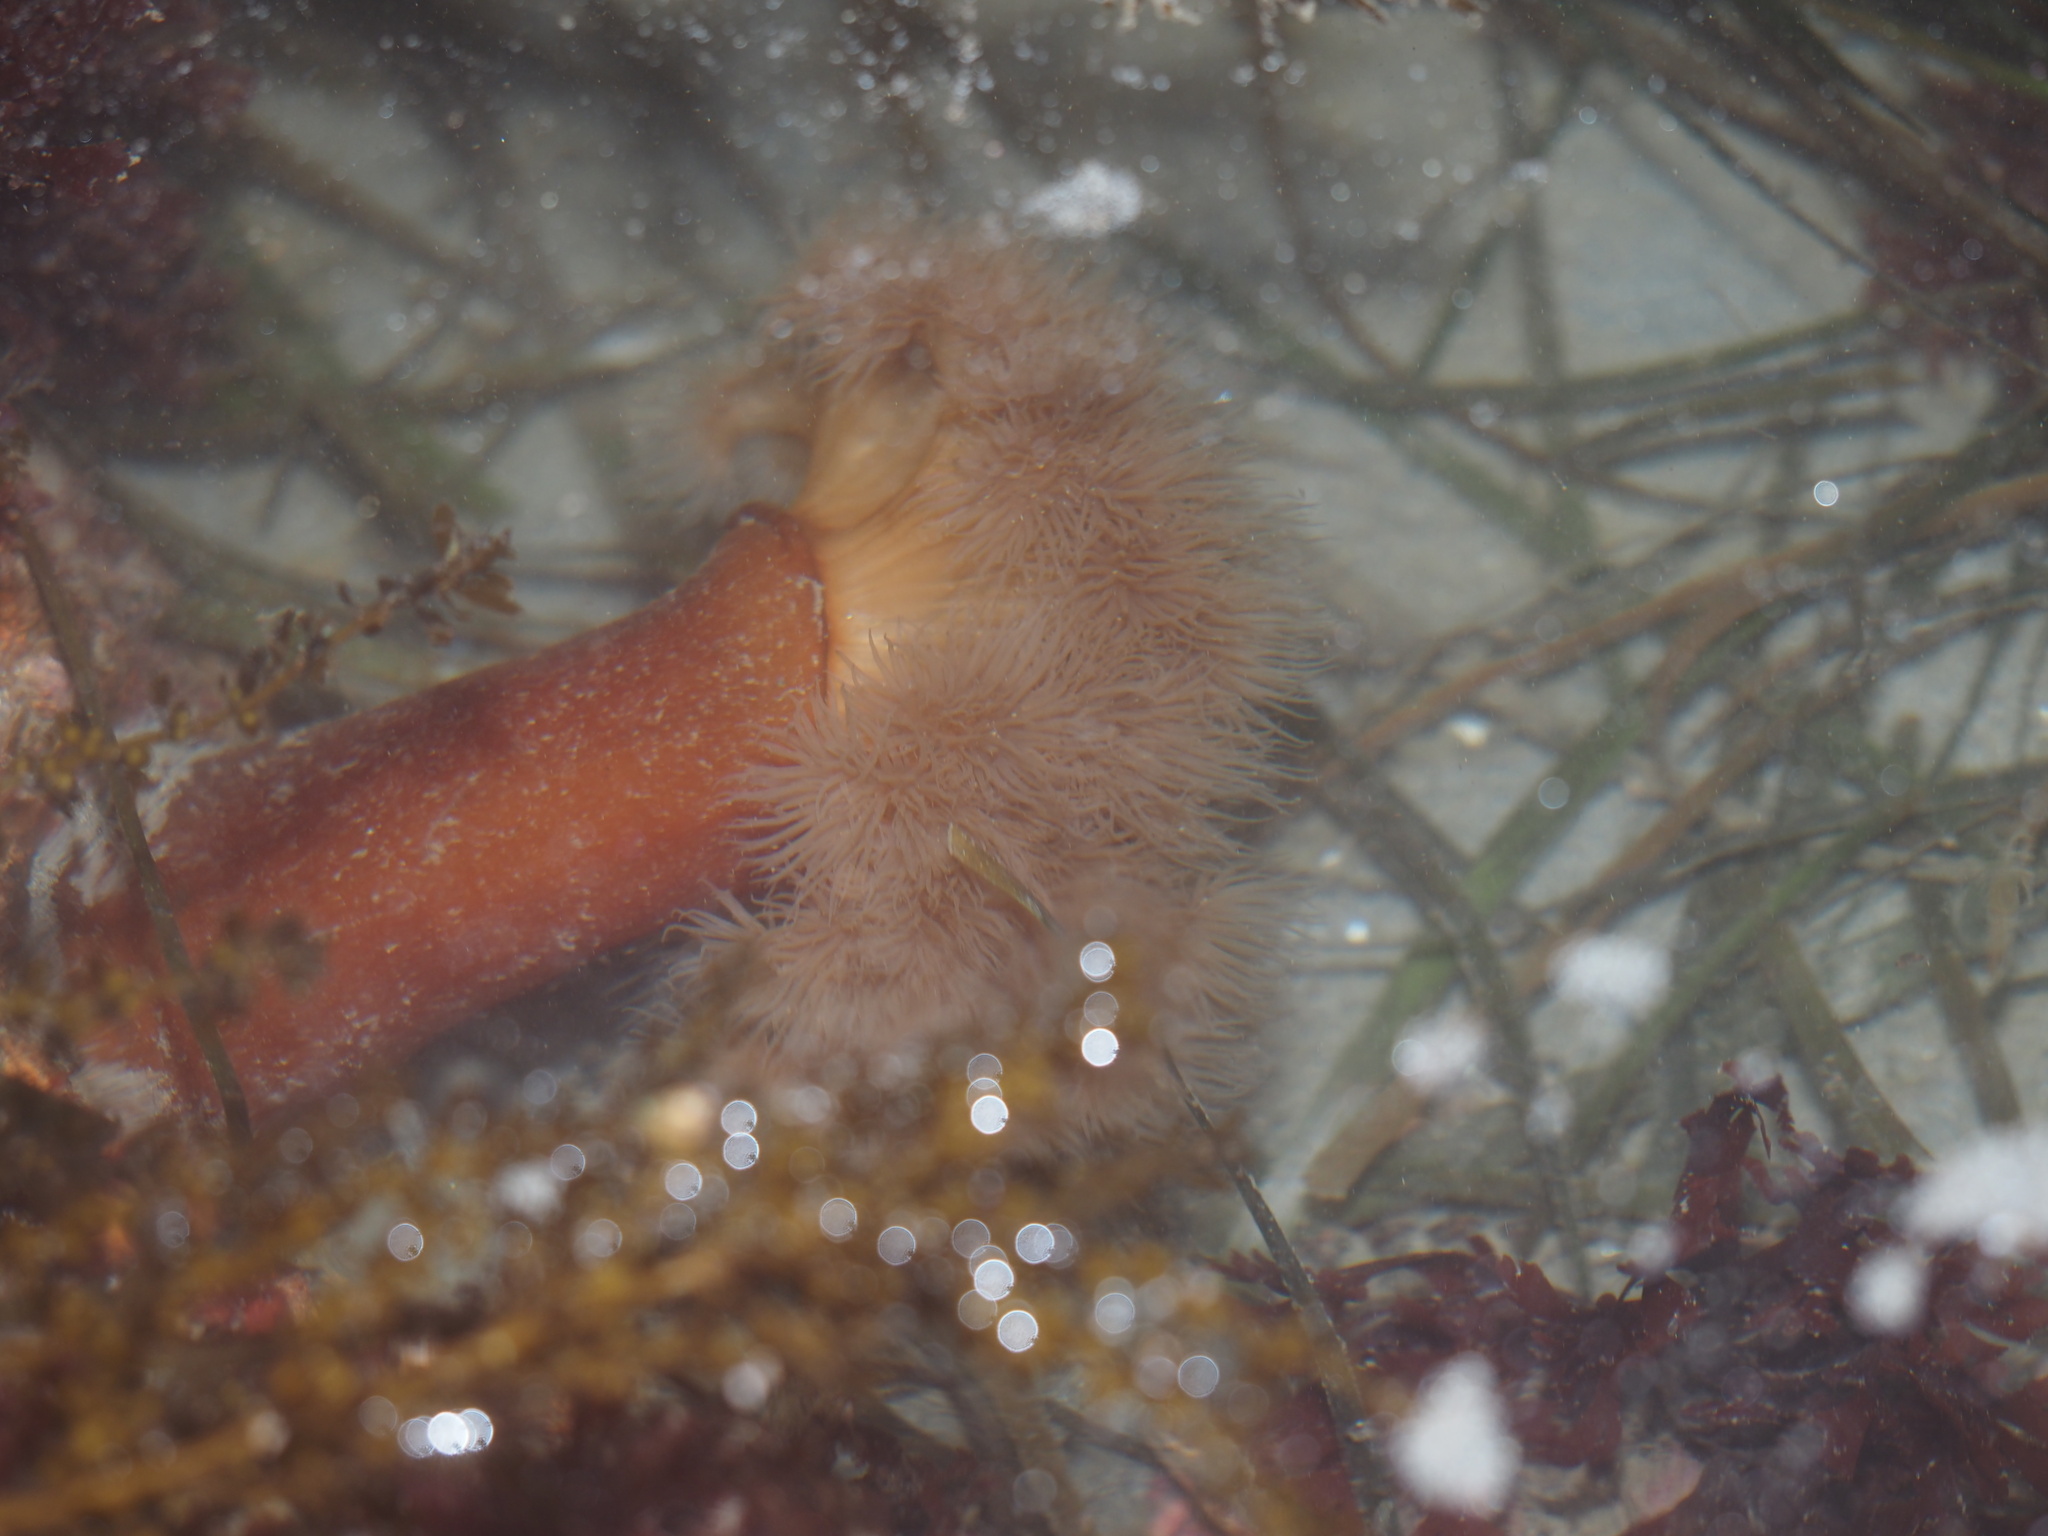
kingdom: Animalia
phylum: Cnidaria
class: Anthozoa
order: Actiniaria
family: Metridiidae
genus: Metridium
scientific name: Metridium senile
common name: Clonal plumose anemone
